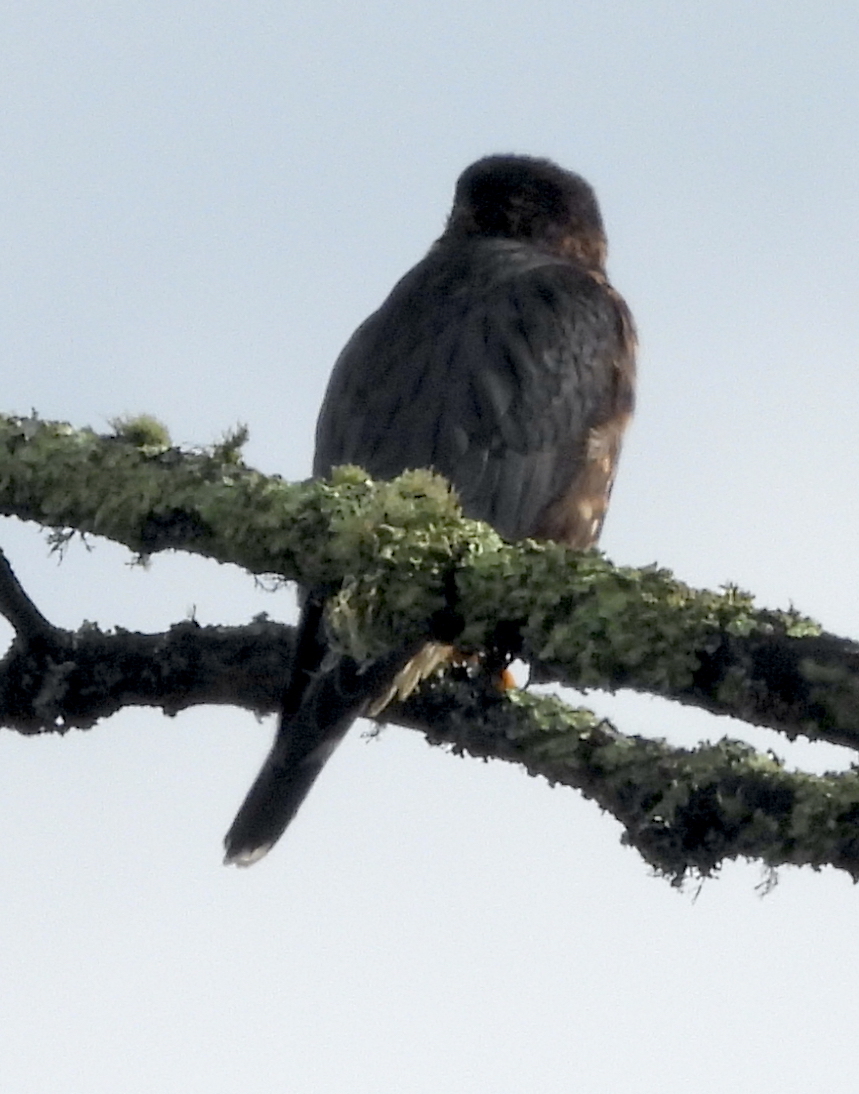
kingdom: Animalia
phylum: Chordata
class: Aves
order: Falconiformes
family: Falconidae
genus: Falco
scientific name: Falco columbarius
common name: Merlin
